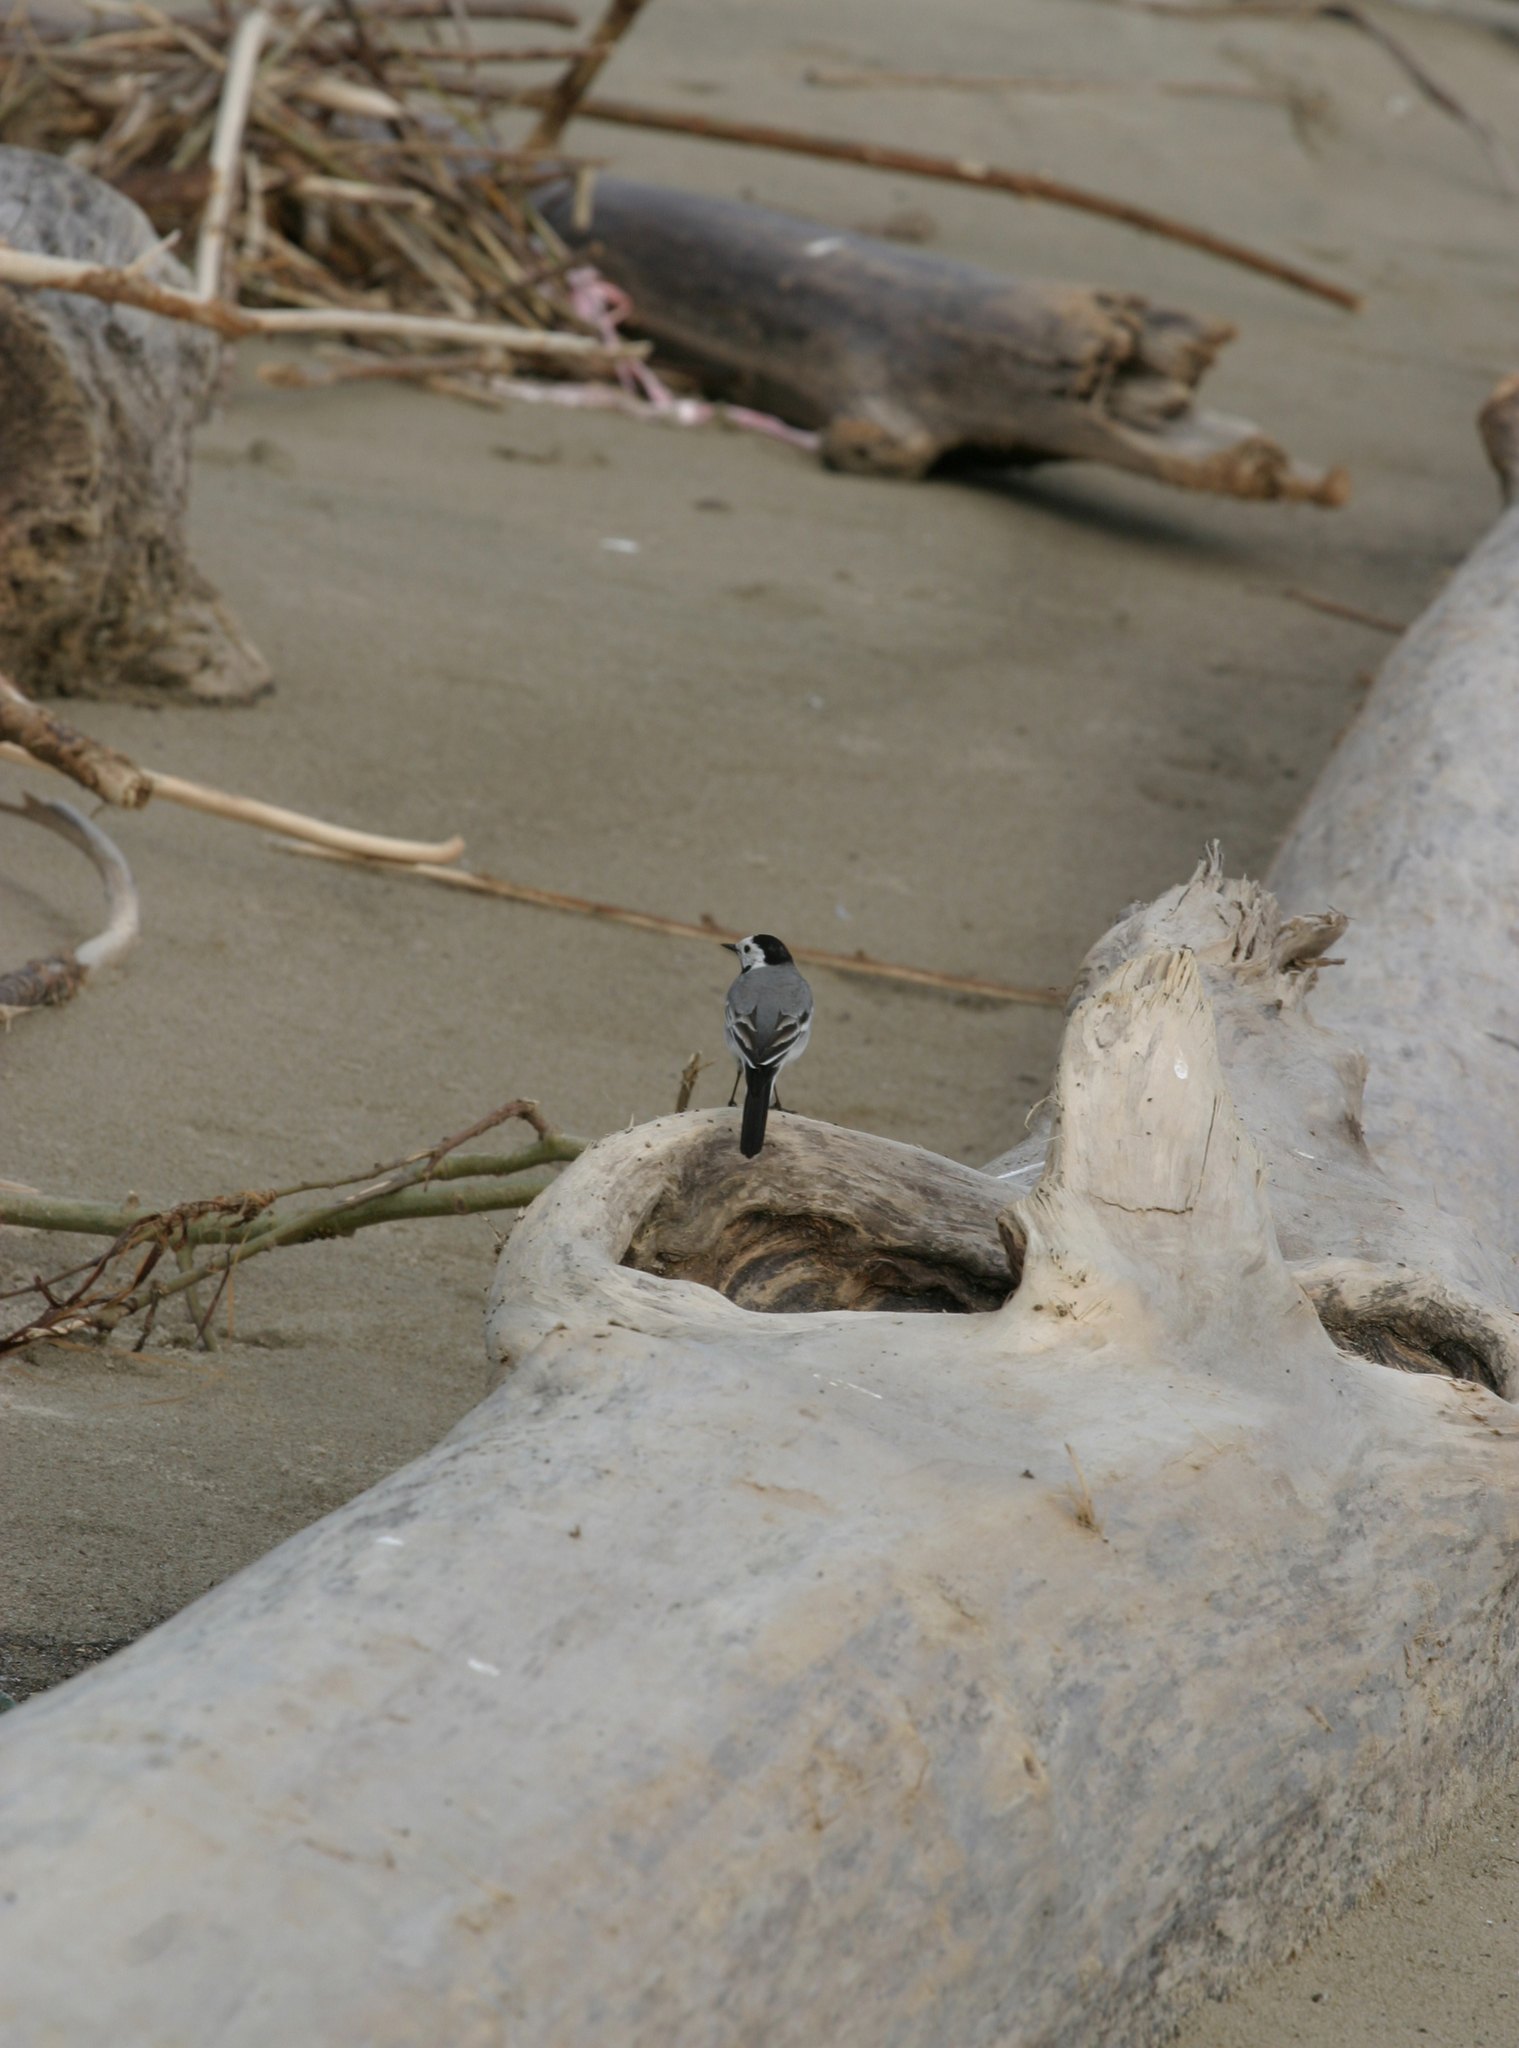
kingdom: Animalia
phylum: Chordata
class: Aves
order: Passeriformes
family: Motacillidae
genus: Motacilla
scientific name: Motacilla alba
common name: White wagtail
